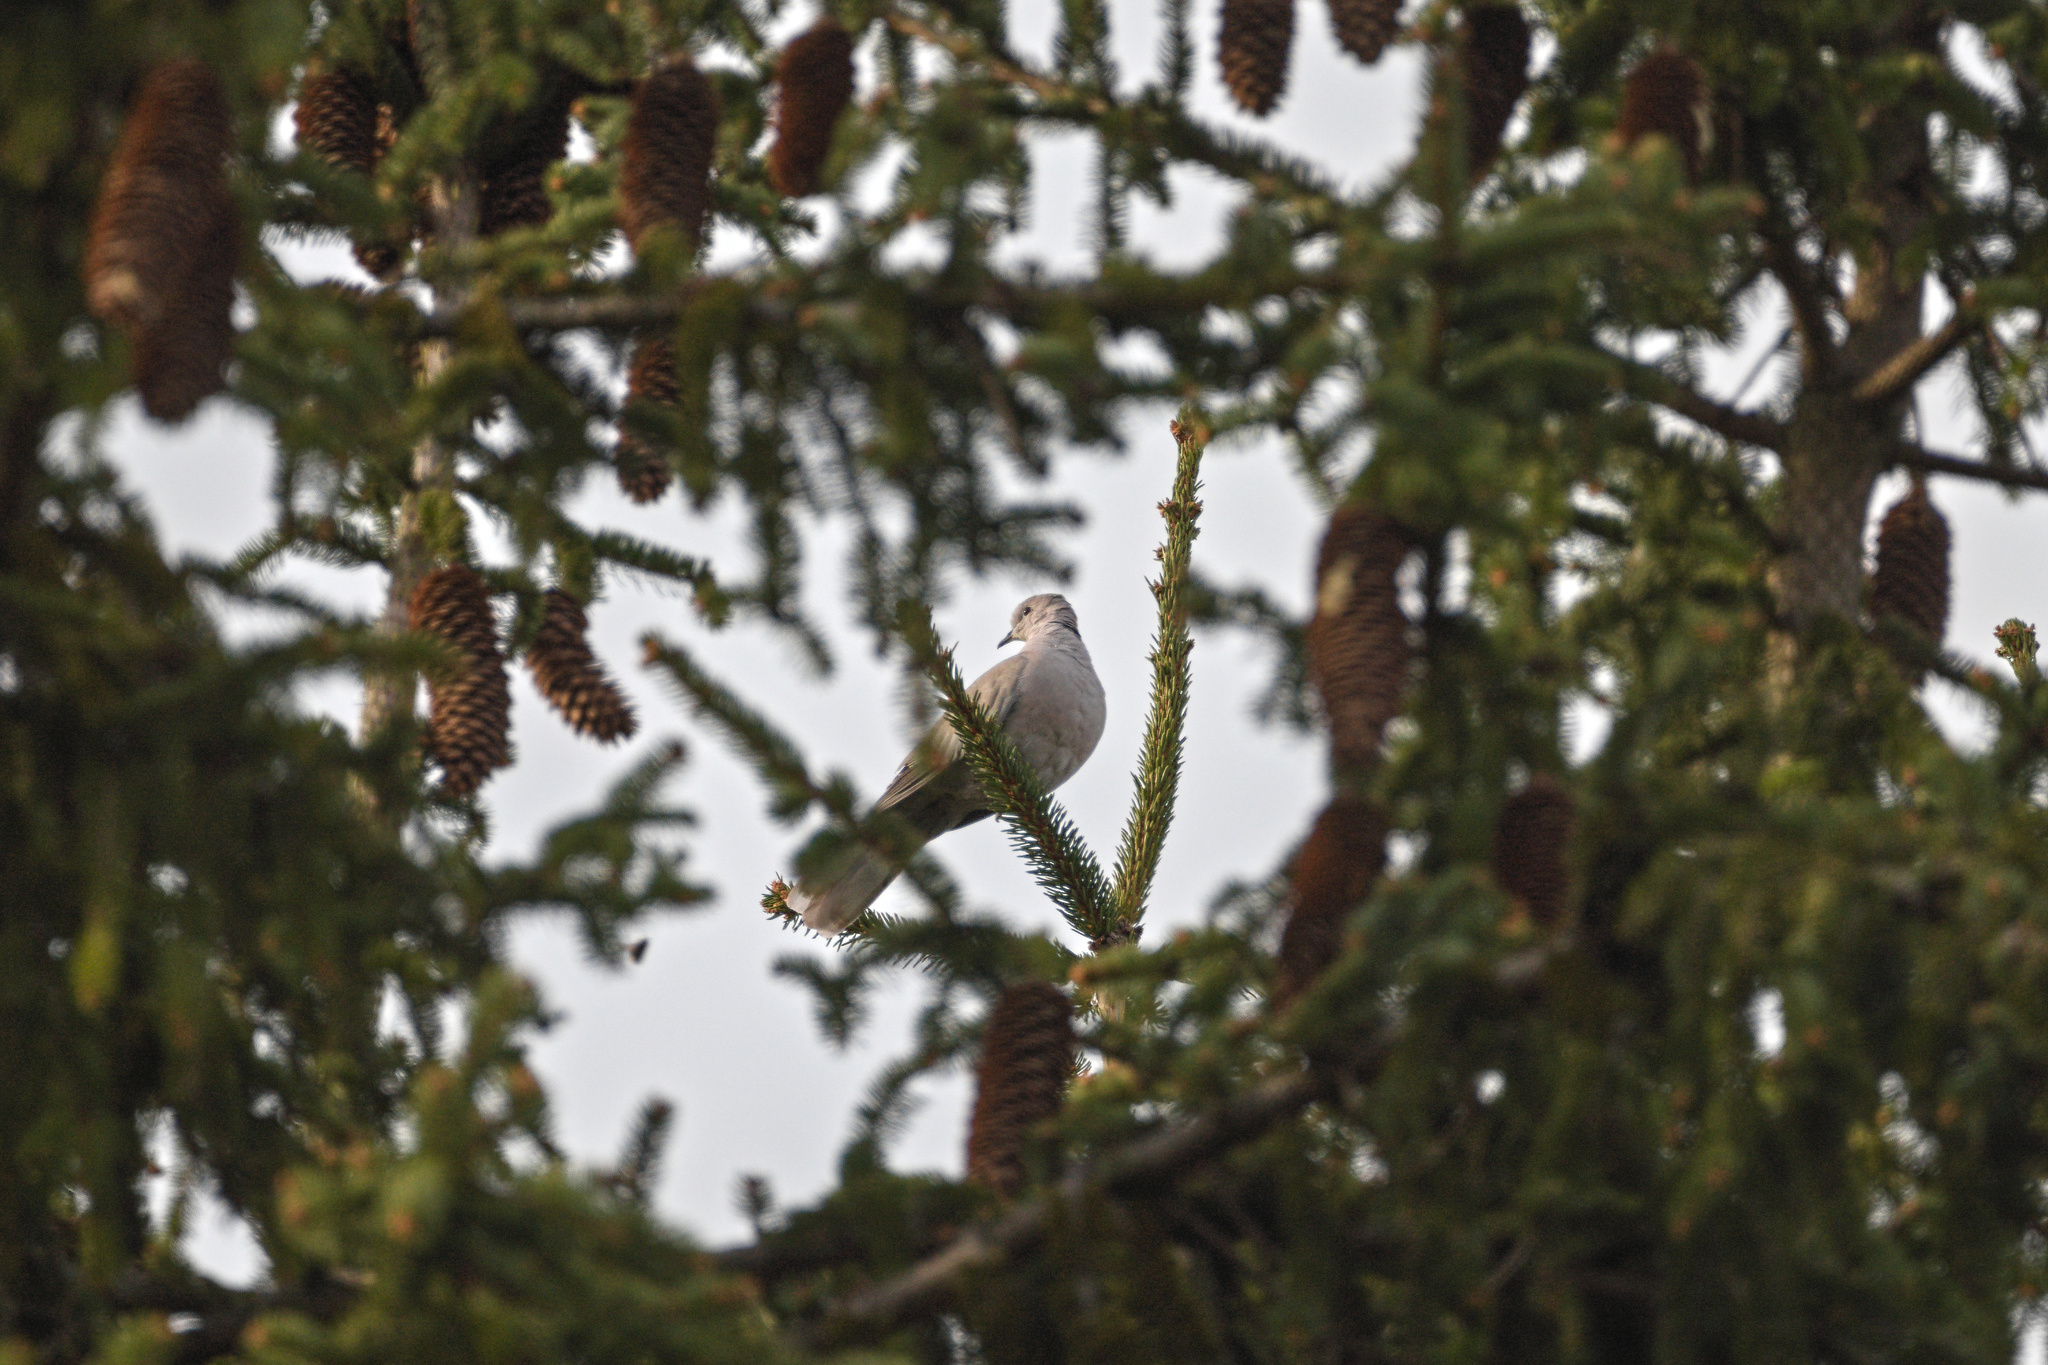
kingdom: Animalia
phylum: Chordata
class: Aves
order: Columbiformes
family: Columbidae
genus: Streptopelia
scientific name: Streptopelia decaocto
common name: Eurasian collared dove
